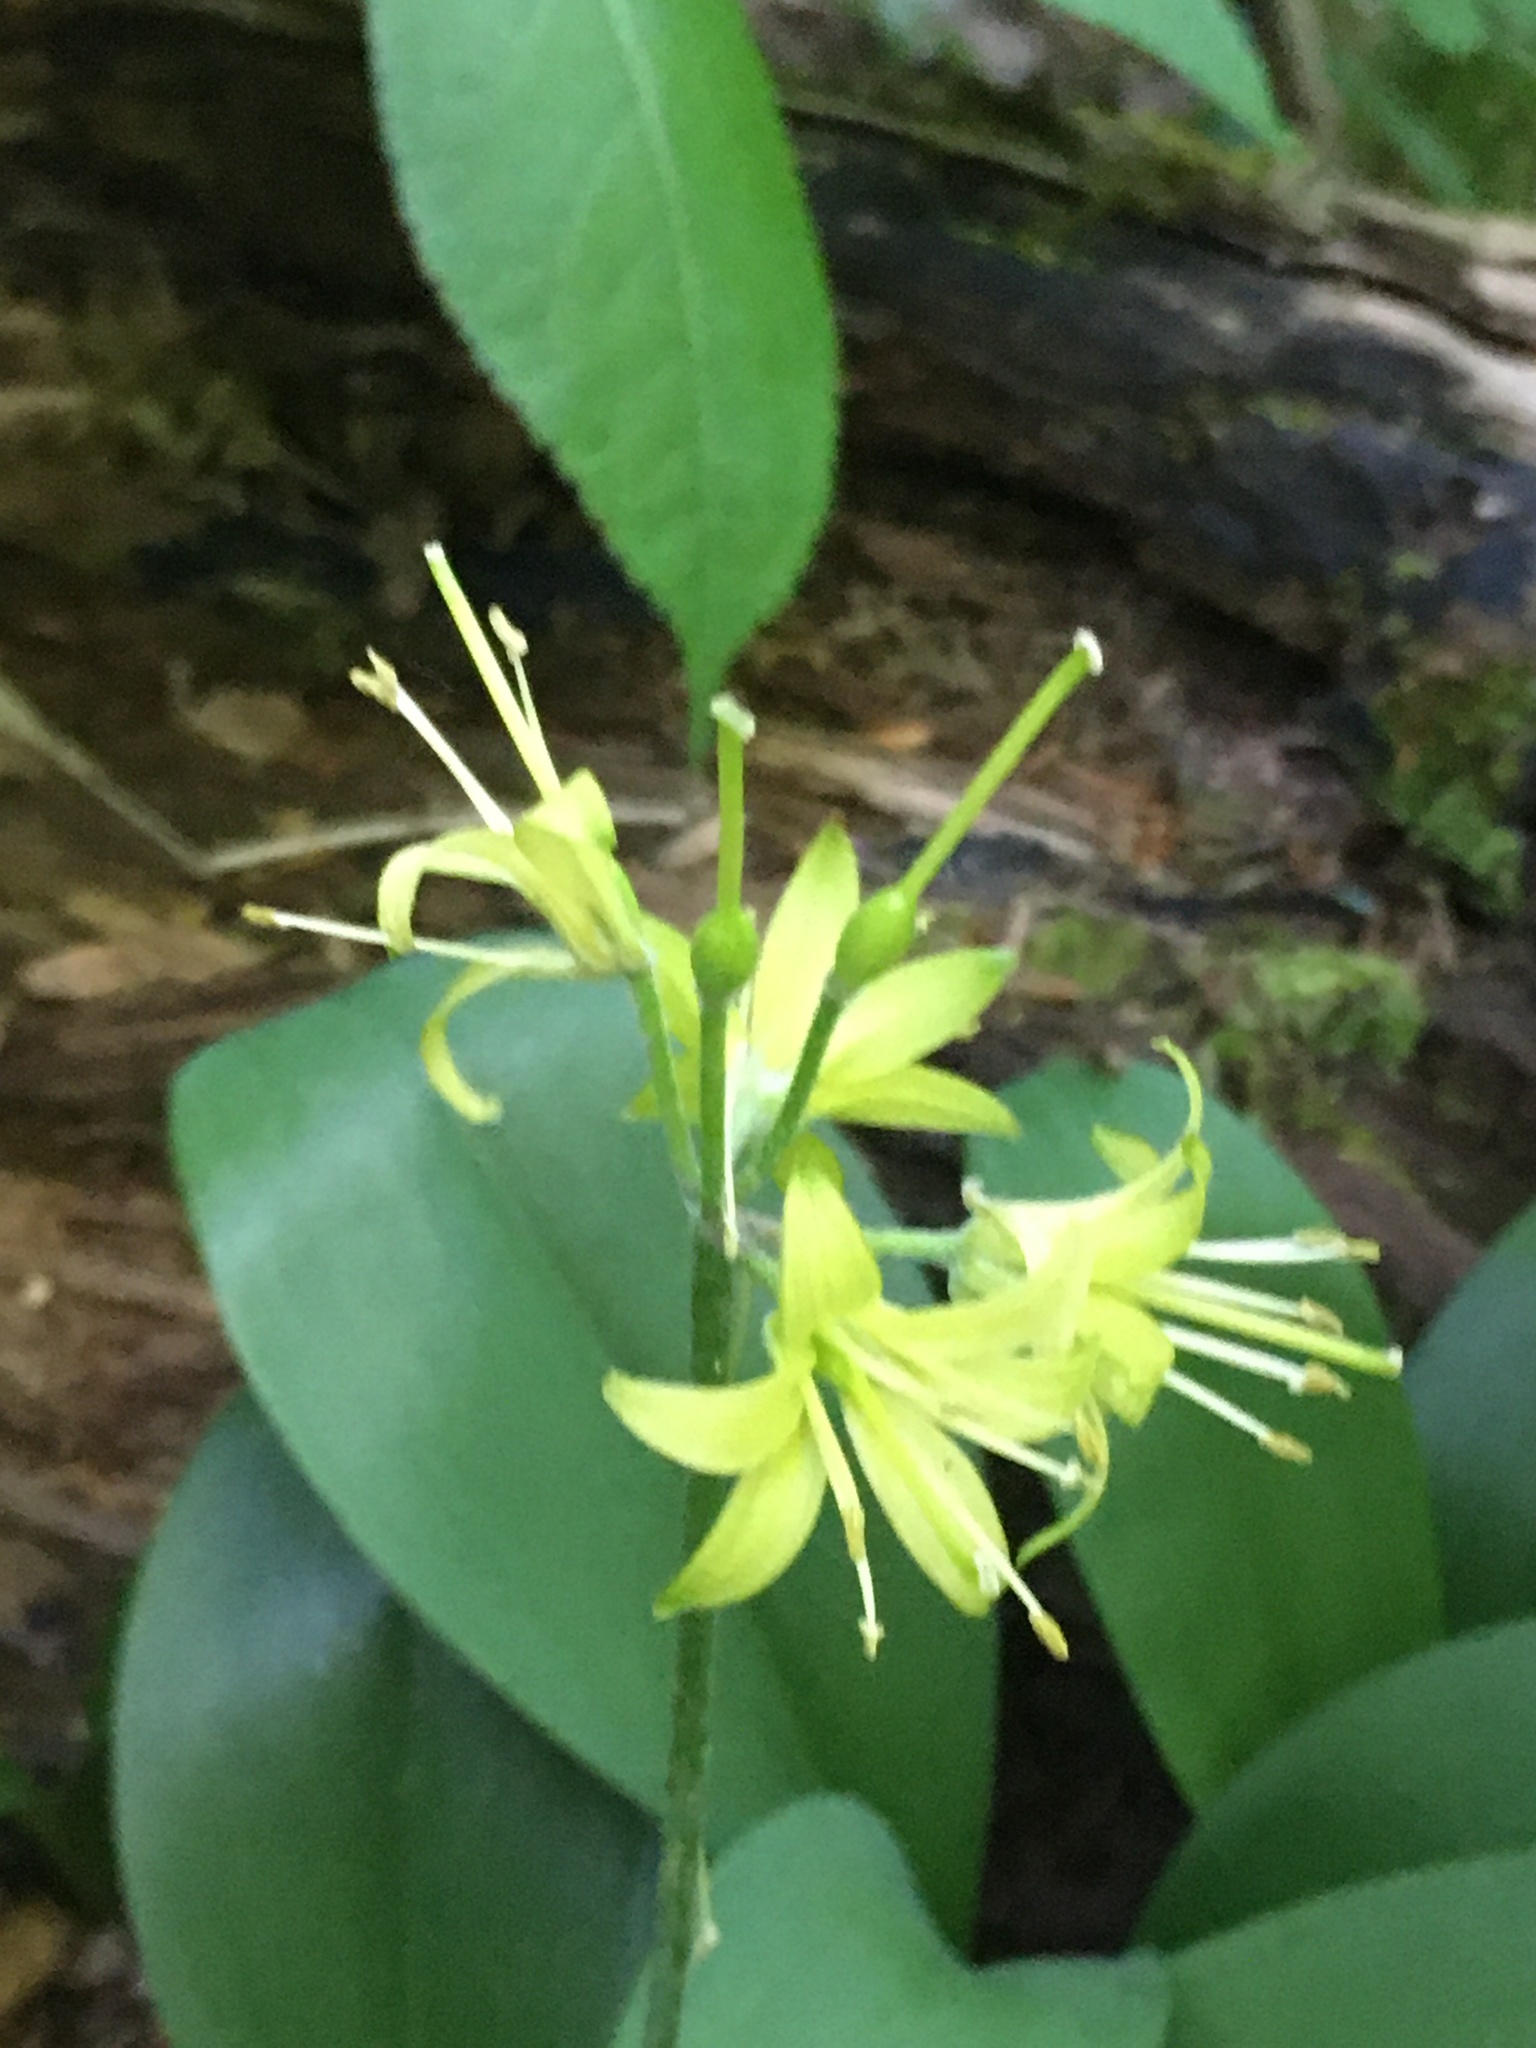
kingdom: Plantae
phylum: Tracheophyta
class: Liliopsida
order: Liliales
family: Liliaceae
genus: Clintonia
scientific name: Clintonia borealis
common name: Yellow clintonia
